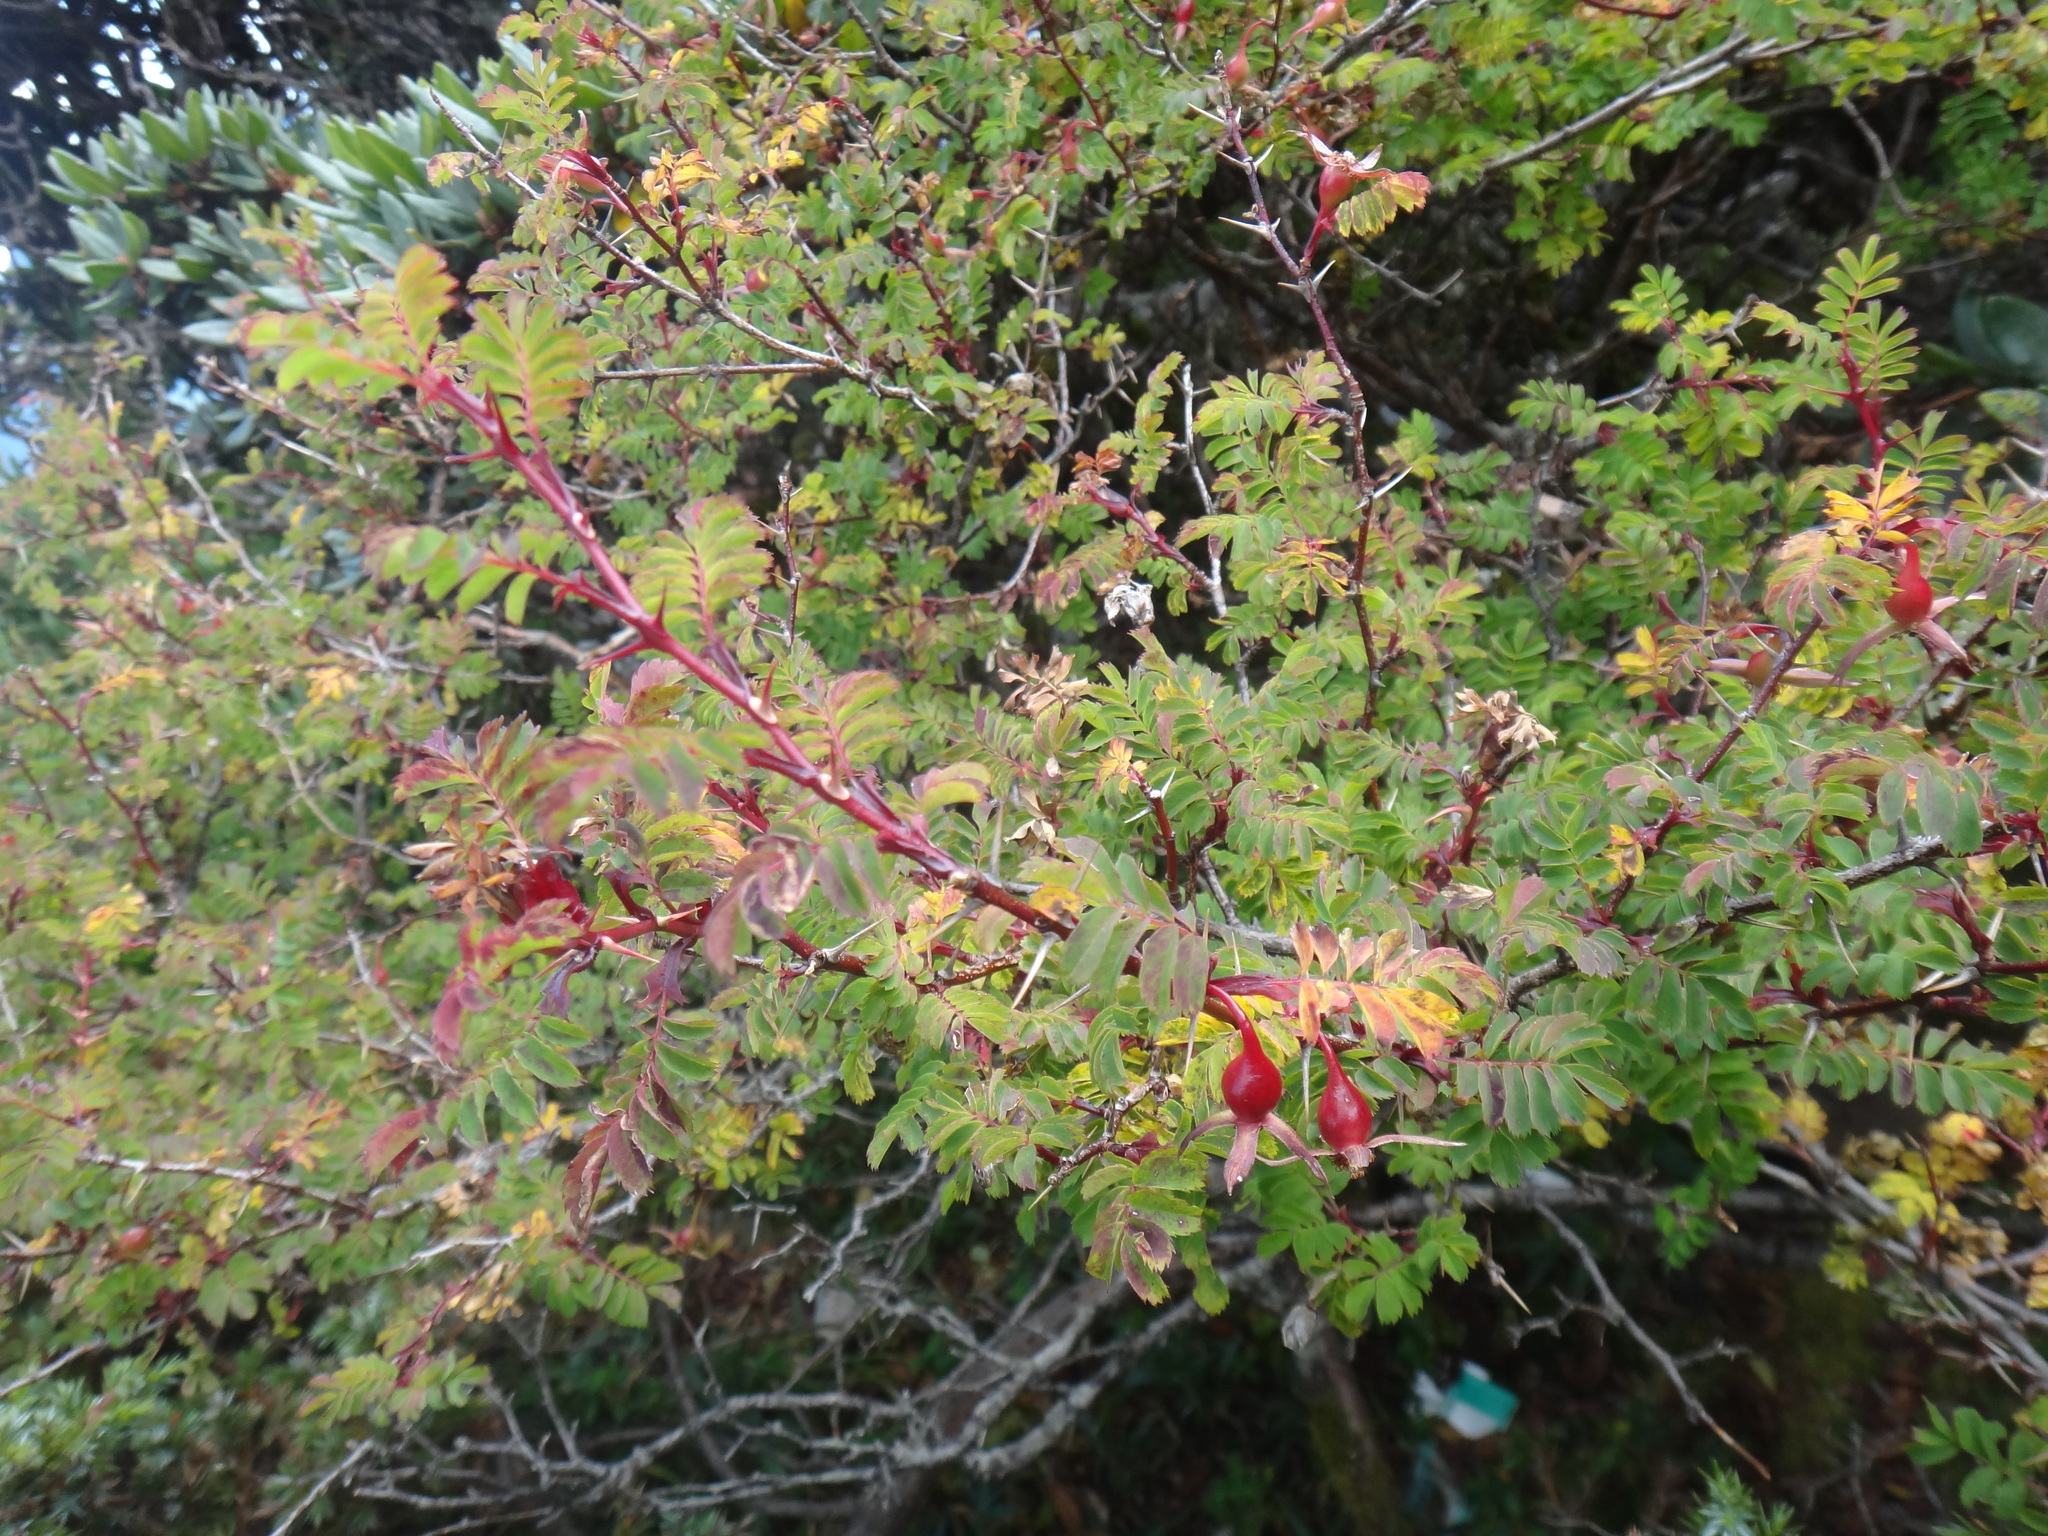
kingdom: Plantae
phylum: Tracheophyta
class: Magnoliopsida
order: Rosales
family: Rosaceae
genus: Rosa
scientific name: Rosa morrisonensis
